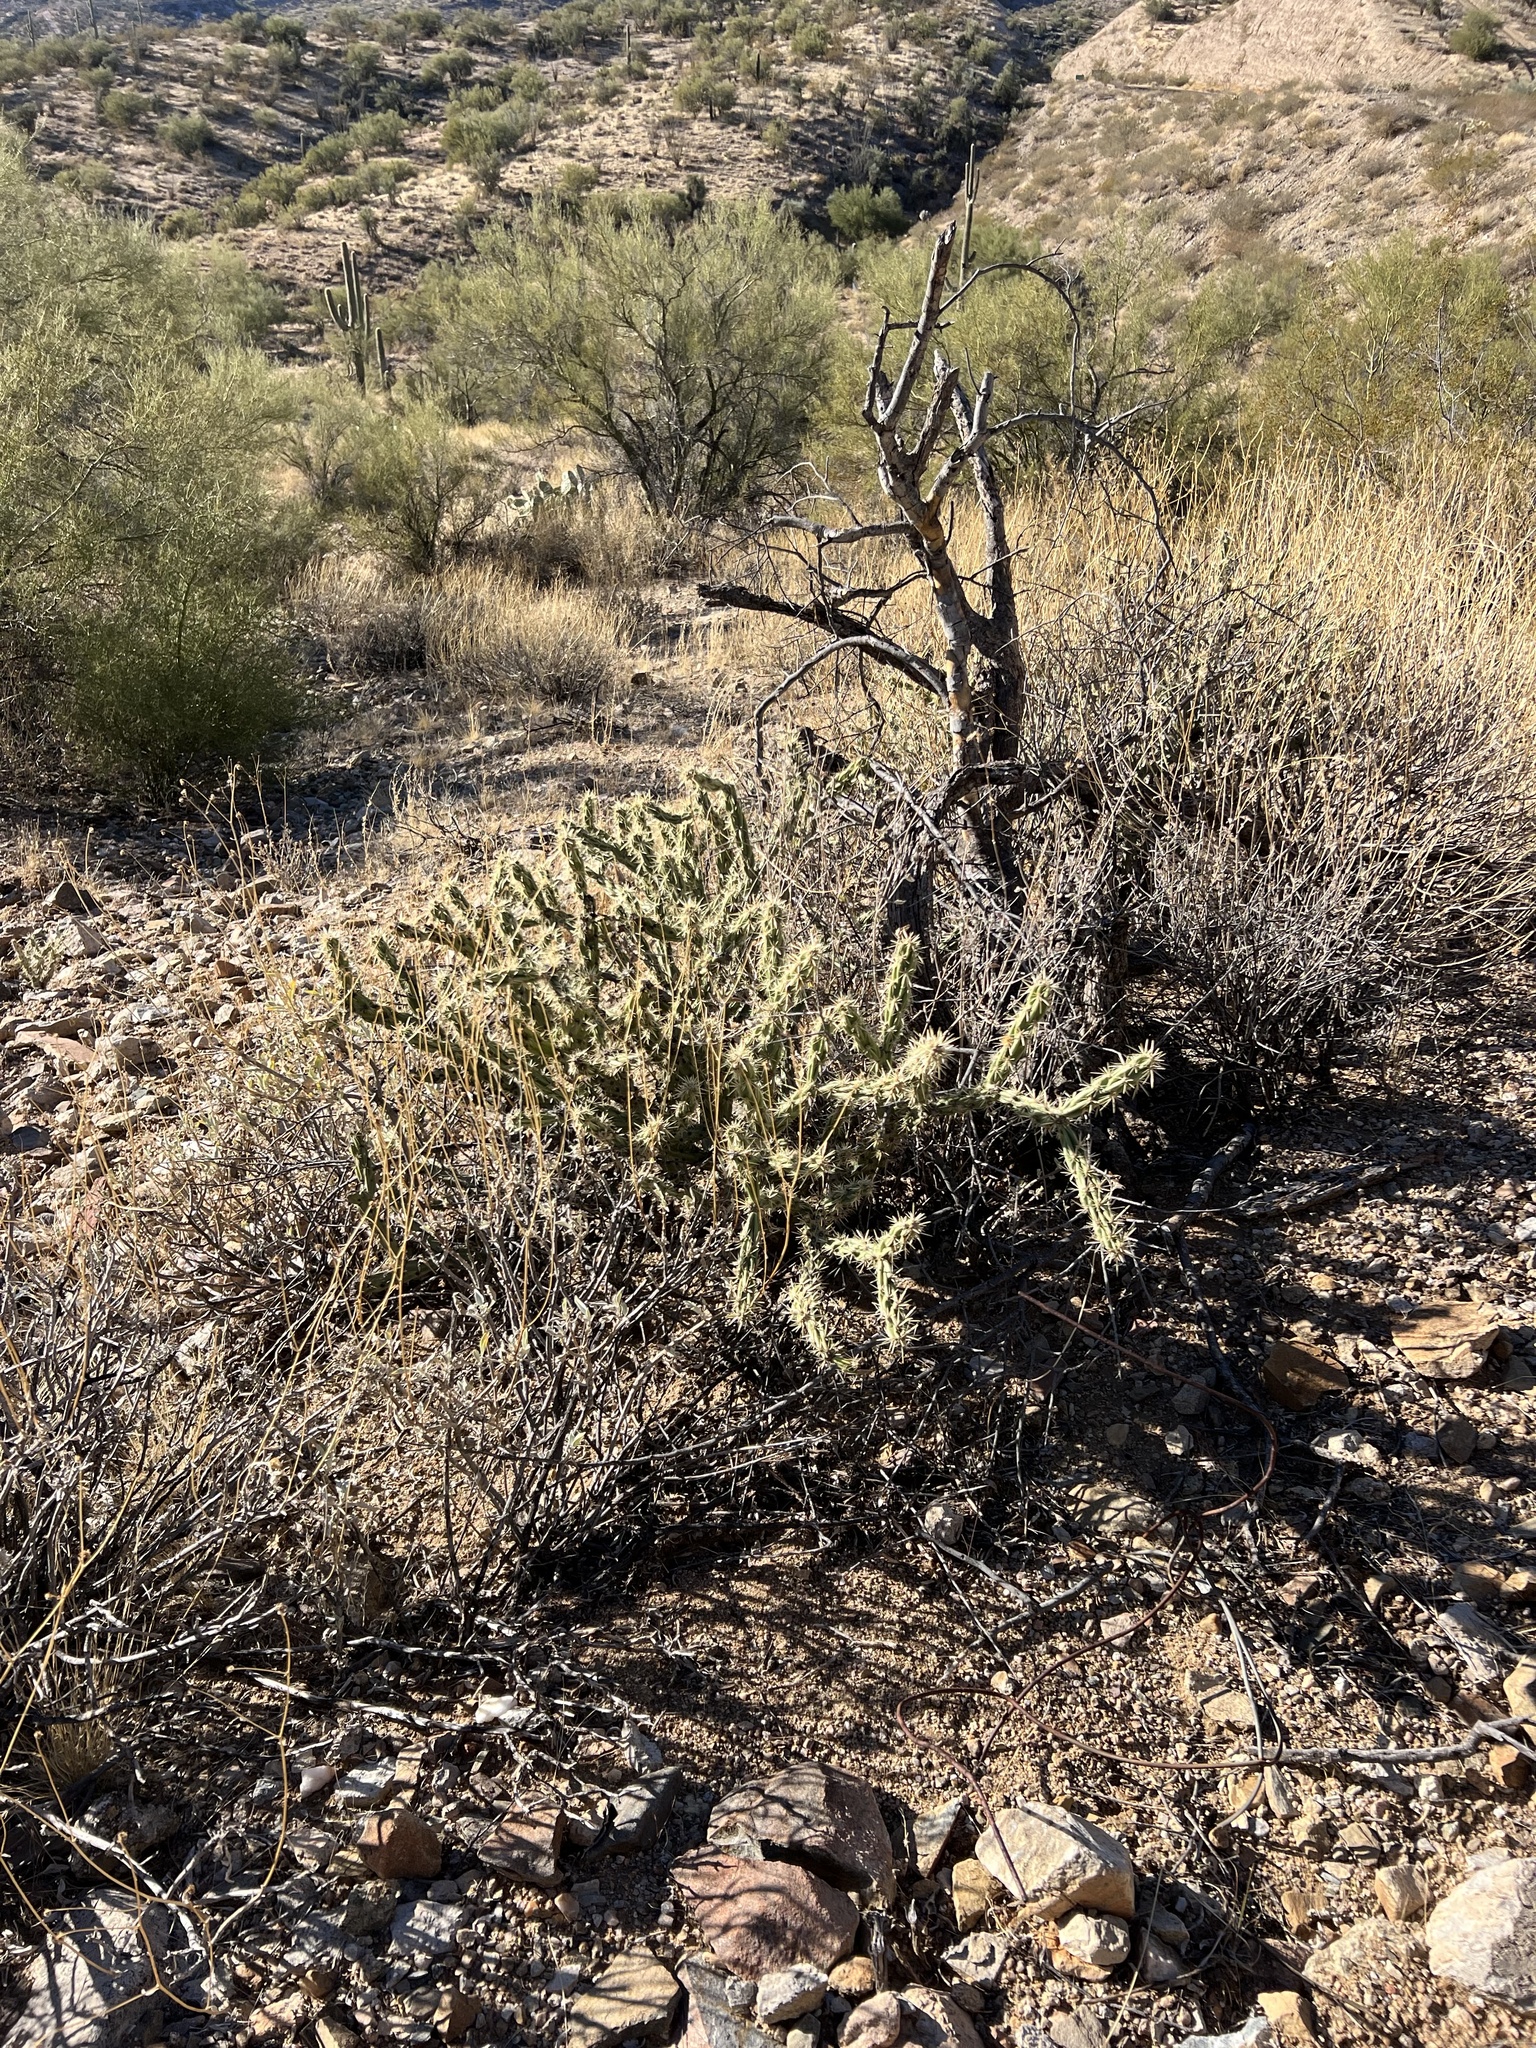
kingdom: Plantae
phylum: Tracheophyta
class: Magnoliopsida
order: Caryophyllales
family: Cactaceae
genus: Cylindropuntia
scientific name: Cylindropuntia acanthocarpa
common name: Buckhorn cholla
